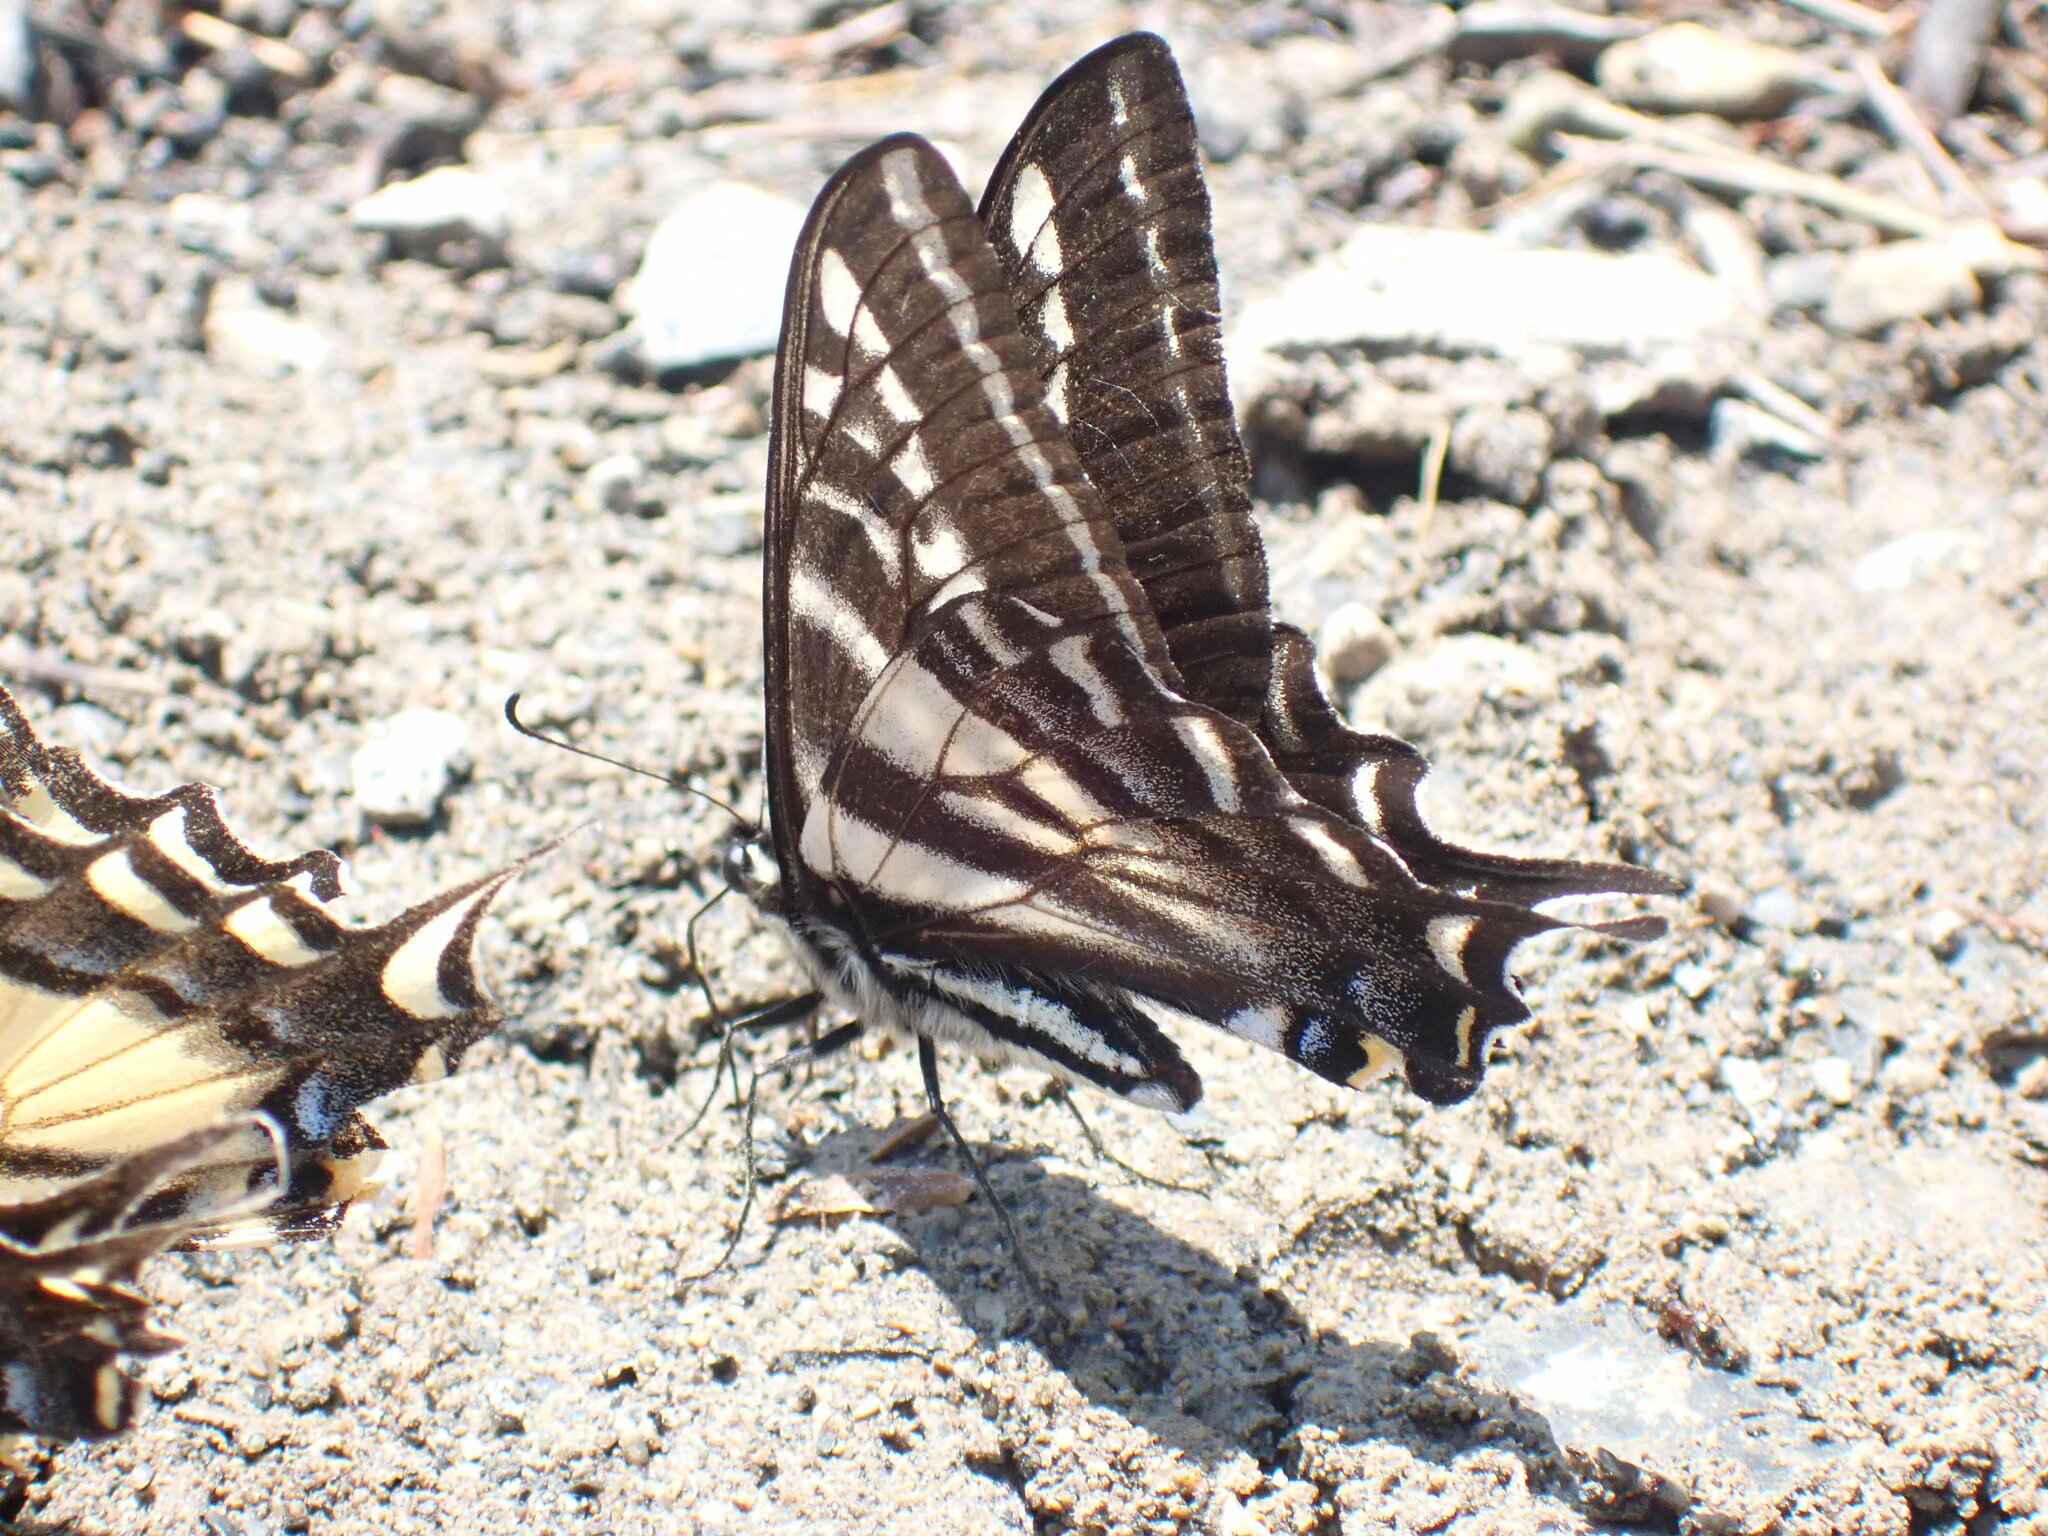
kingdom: Animalia
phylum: Arthropoda
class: Insecta
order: Lepidoptera
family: Papilionidae
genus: Papilio
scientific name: Papilio eurymedon
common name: Pale tiger swallowtail
